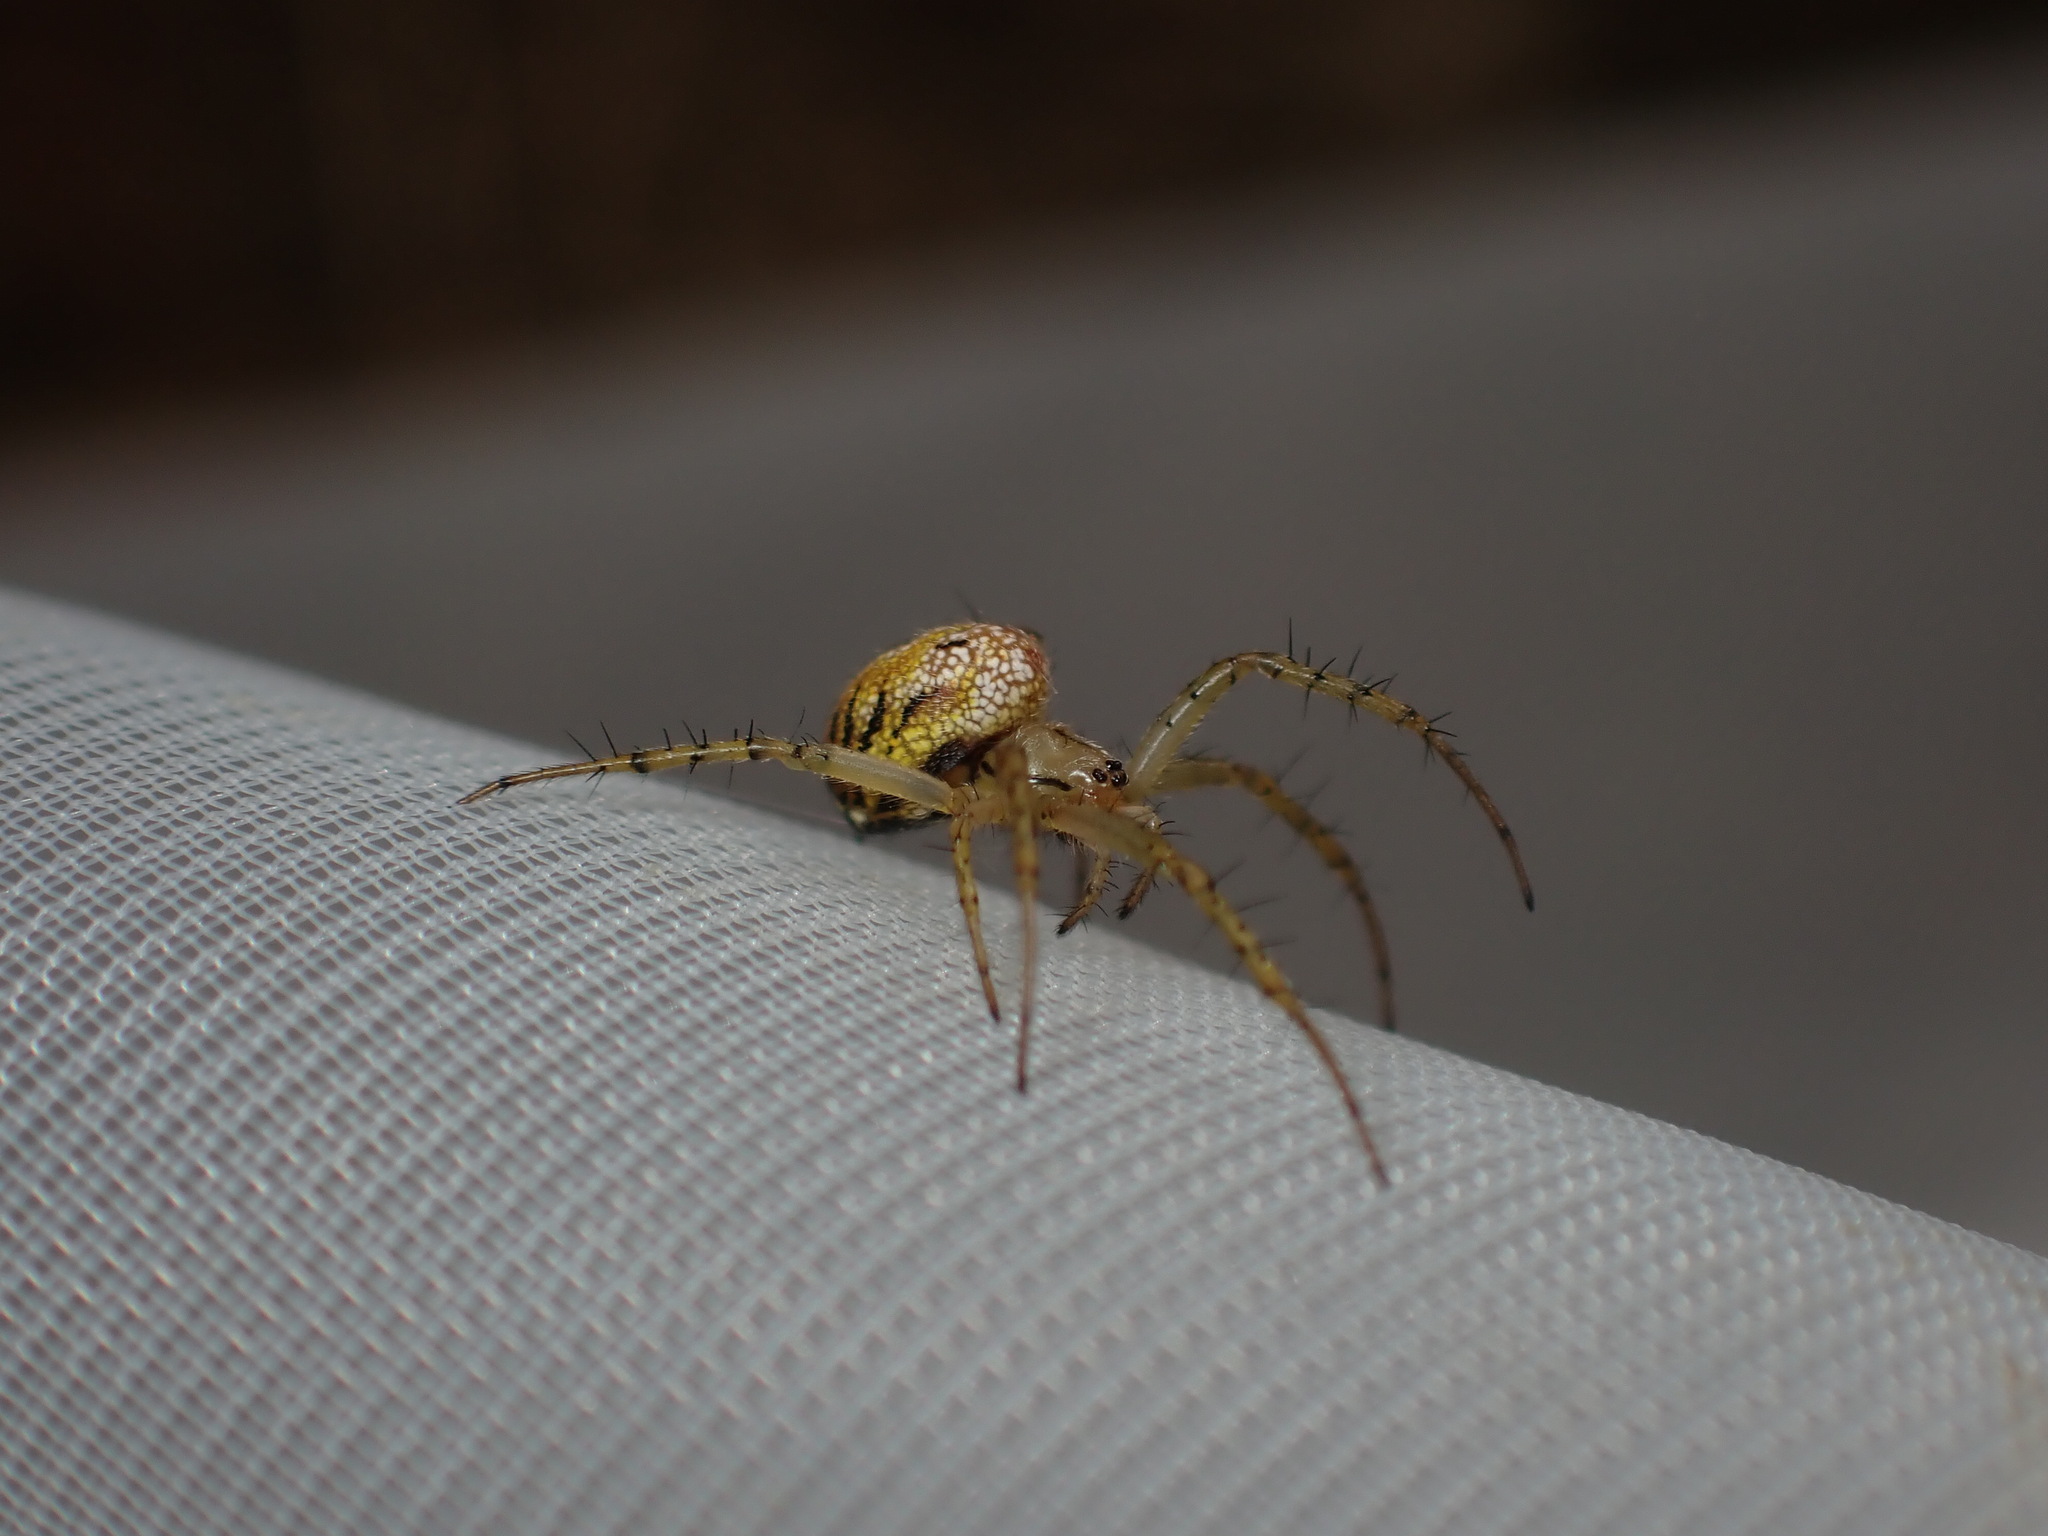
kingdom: Animalia
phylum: Arthropoda
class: Arachnida
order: Araneae
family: Araneidae
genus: Mangora
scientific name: Mangora acalypha
